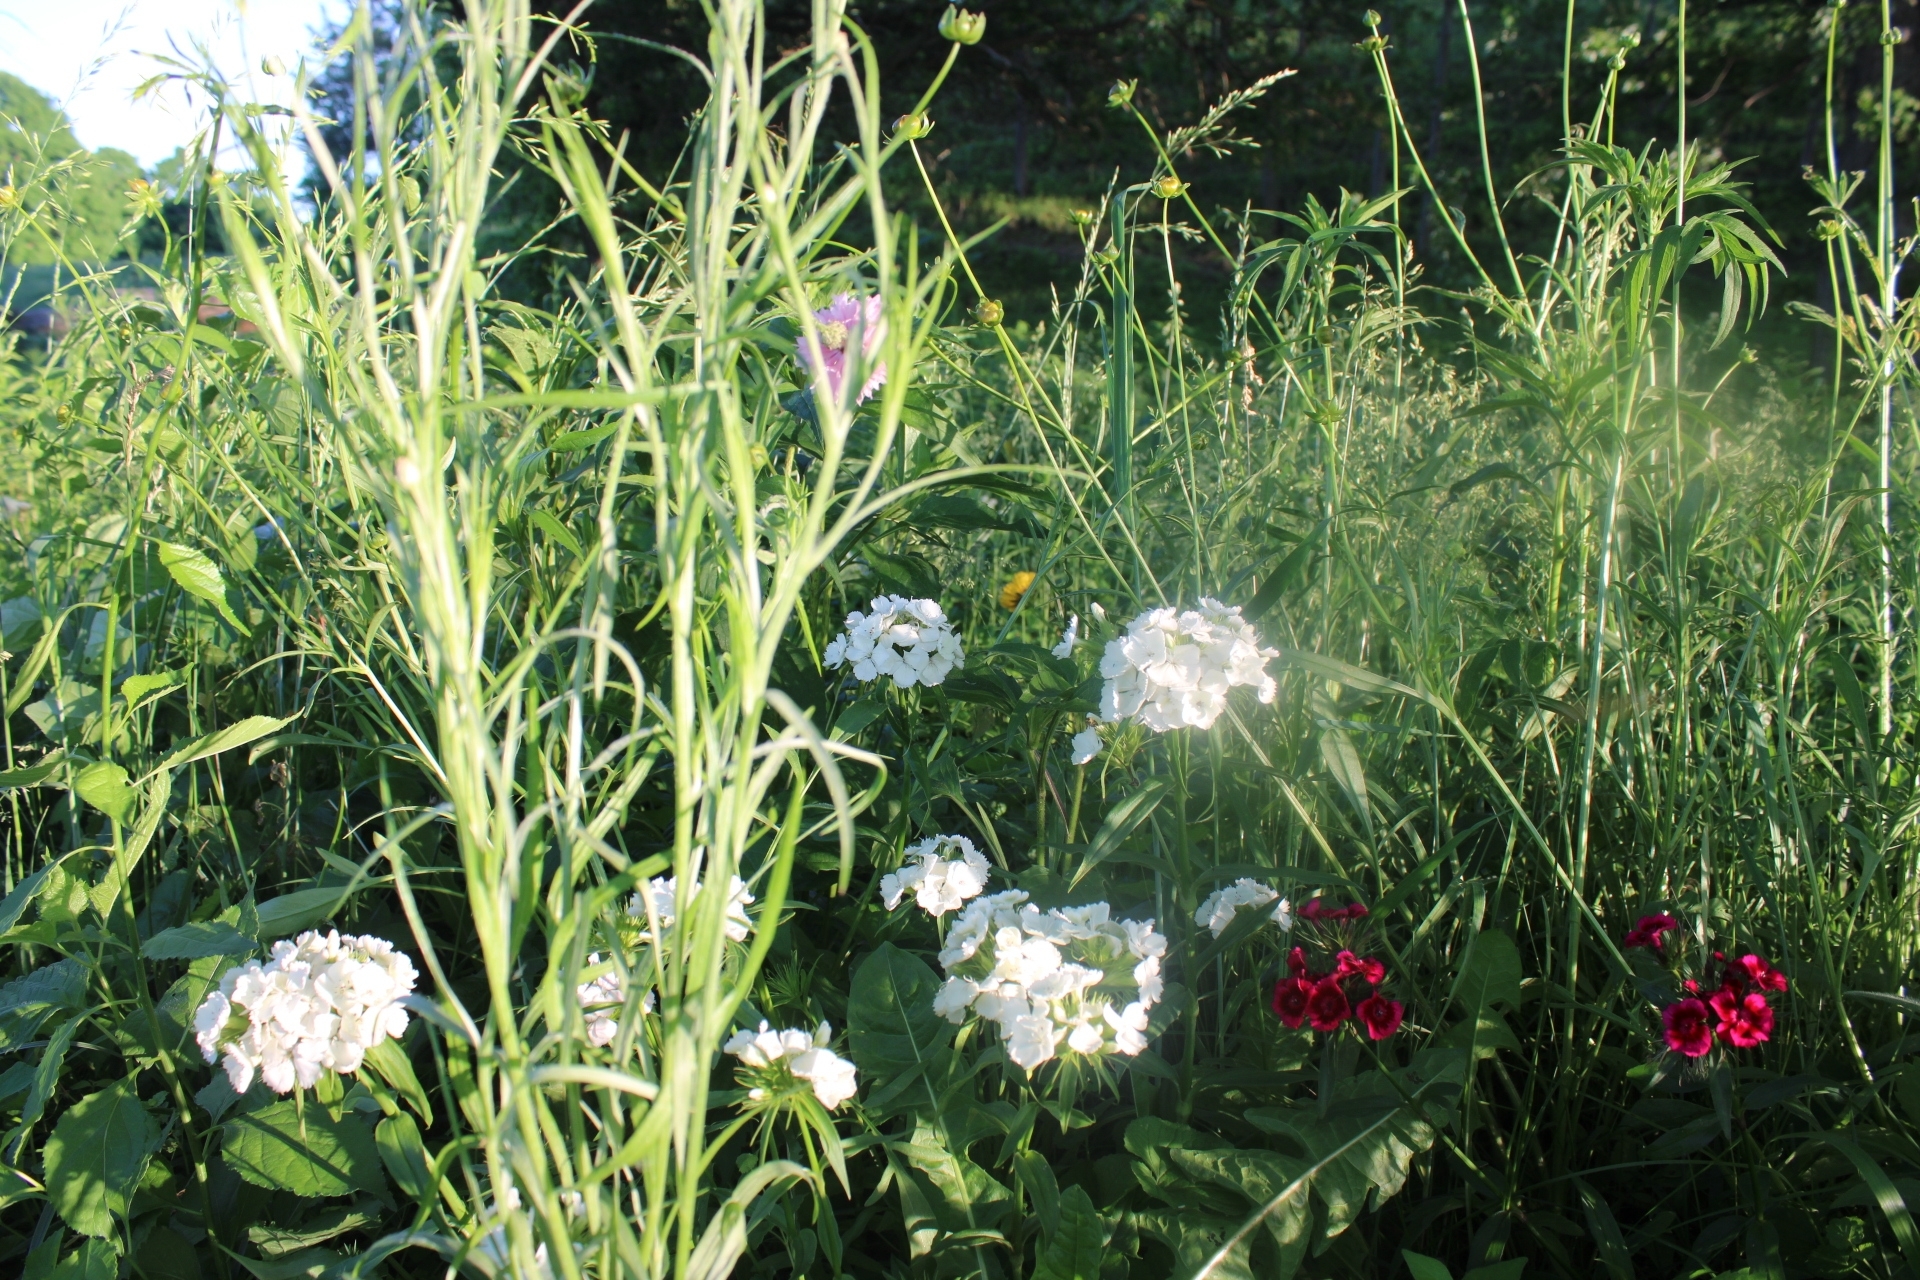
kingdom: Plantae
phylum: Tracheophyta
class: Magnoliopsida
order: Caryophyllales
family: Caryophyllaceae
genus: Dianthus
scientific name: Dianthus barbatus
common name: Sweet-william
